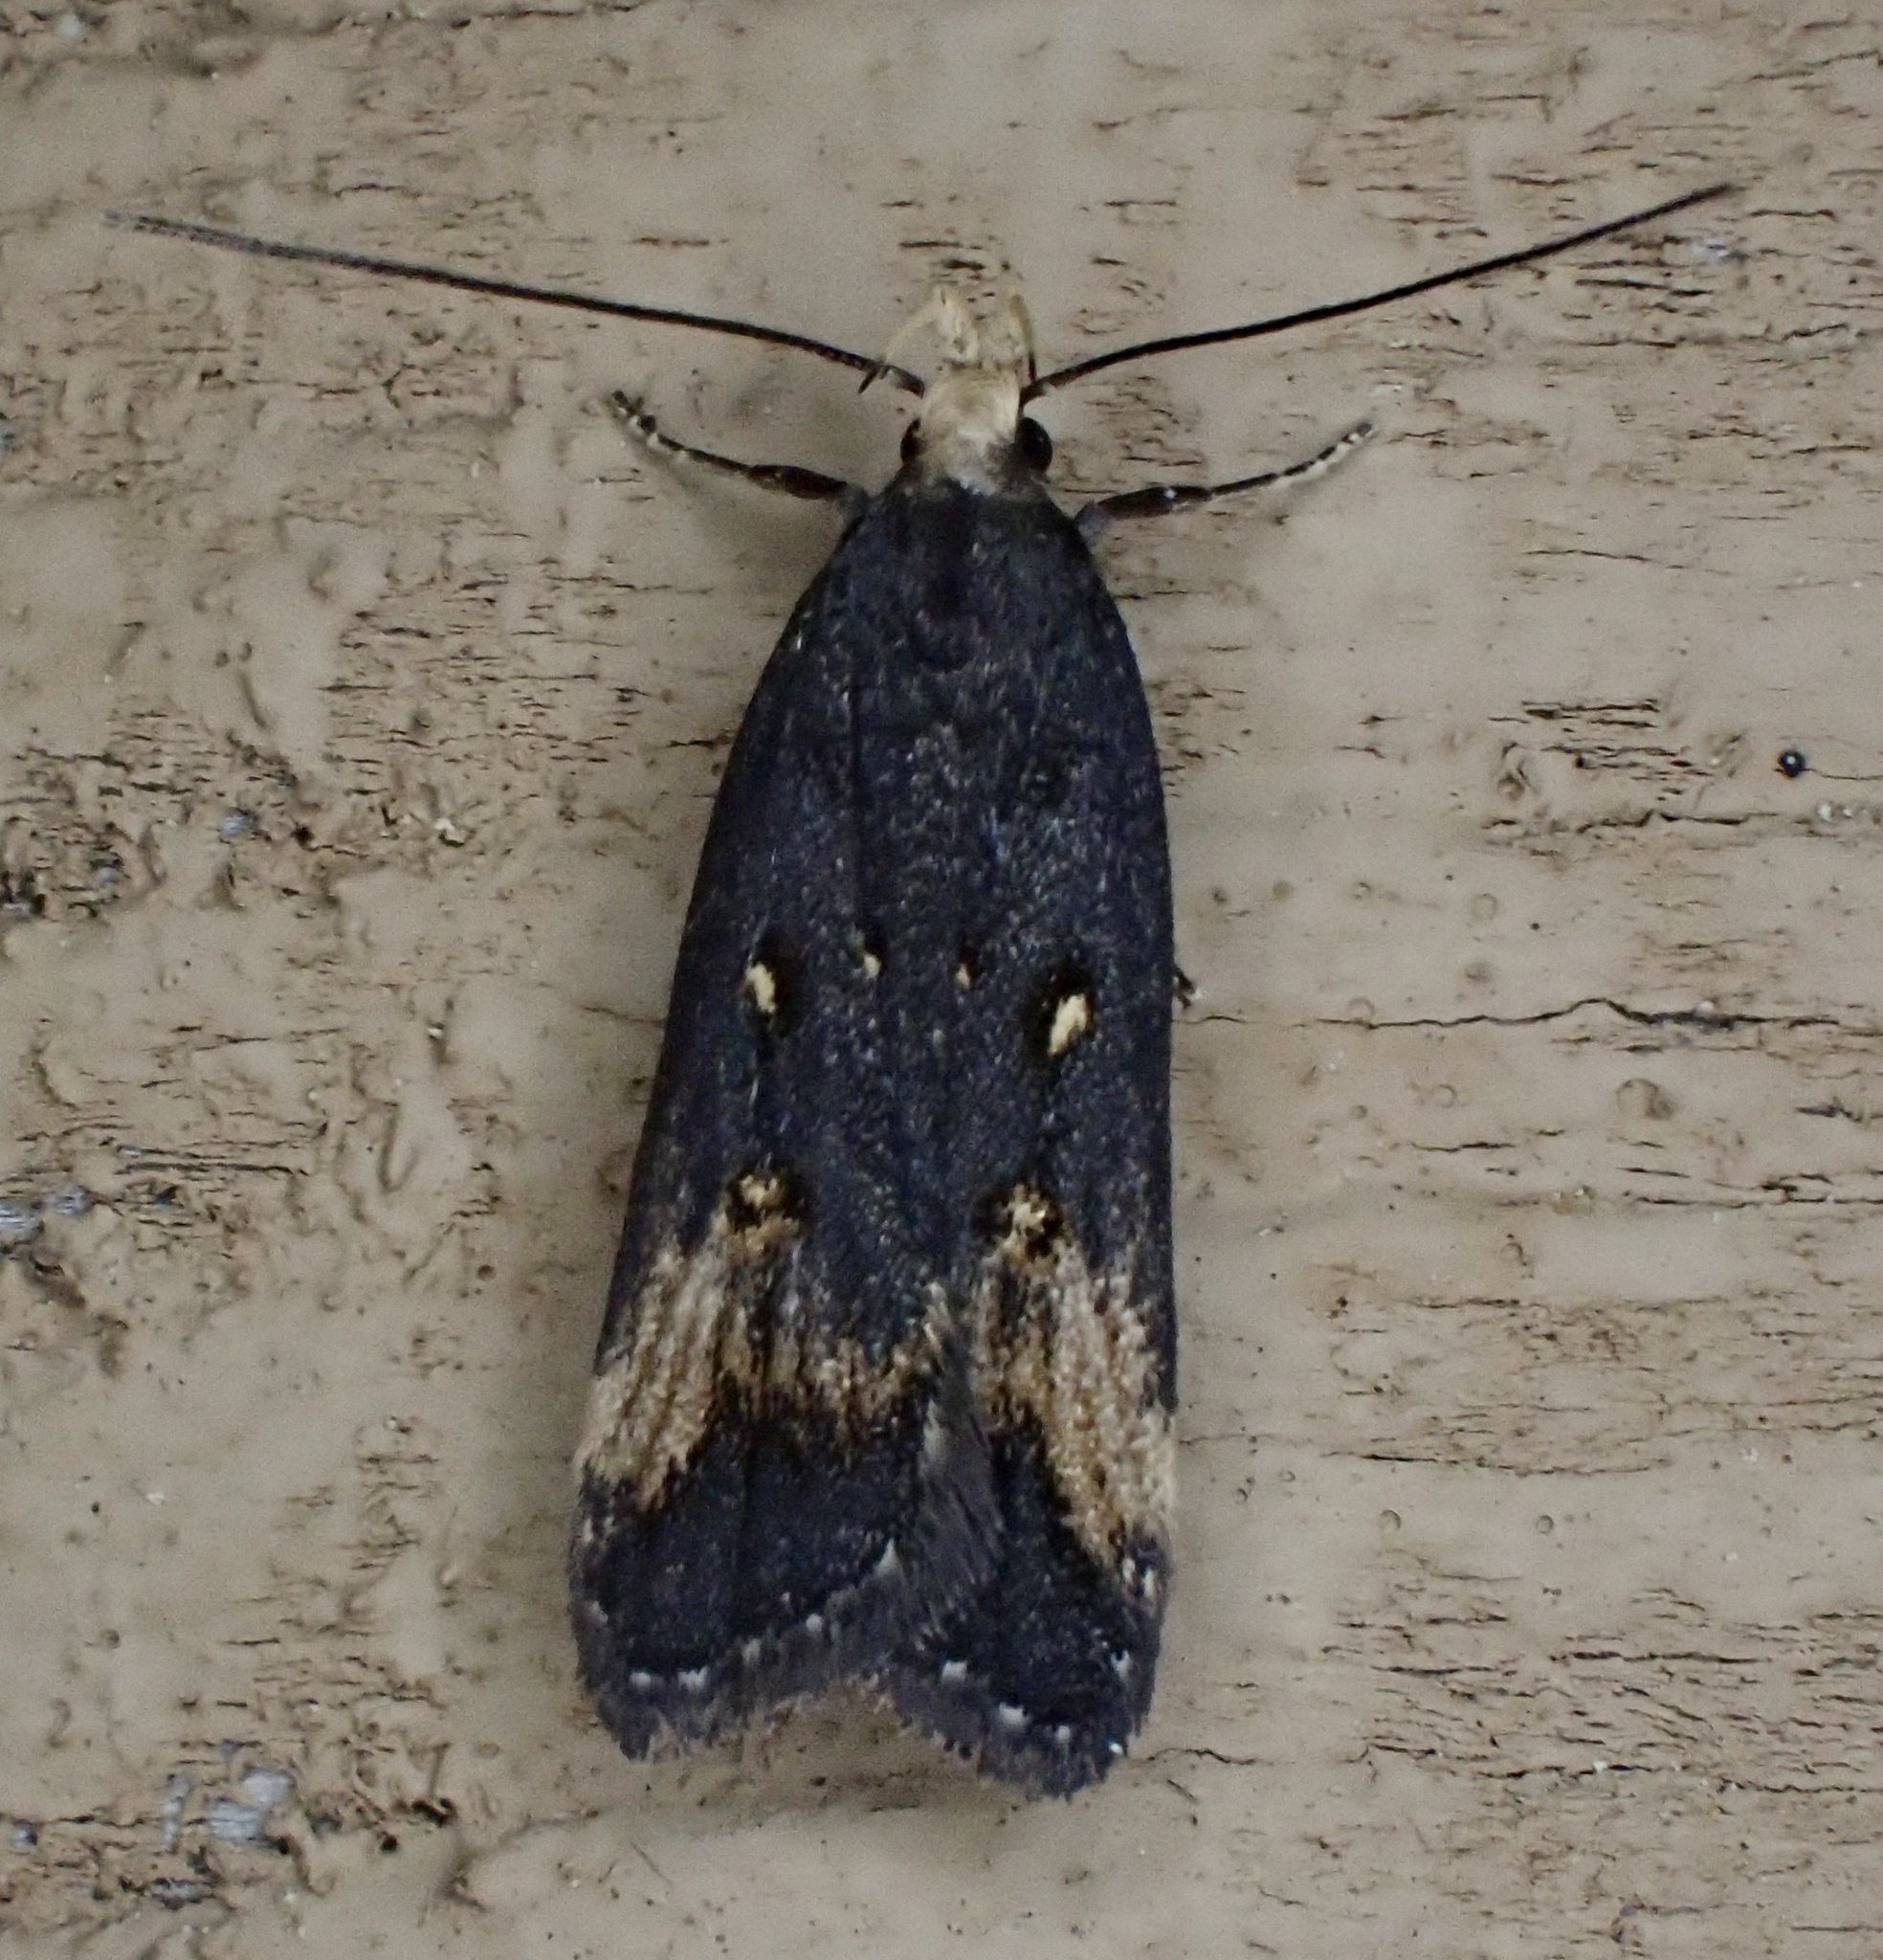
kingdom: Animalia
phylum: Arthropoda
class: Insecta
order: Lepidoptera
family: Gelechiidae
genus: Dichomeris
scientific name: Dichomeris offula
